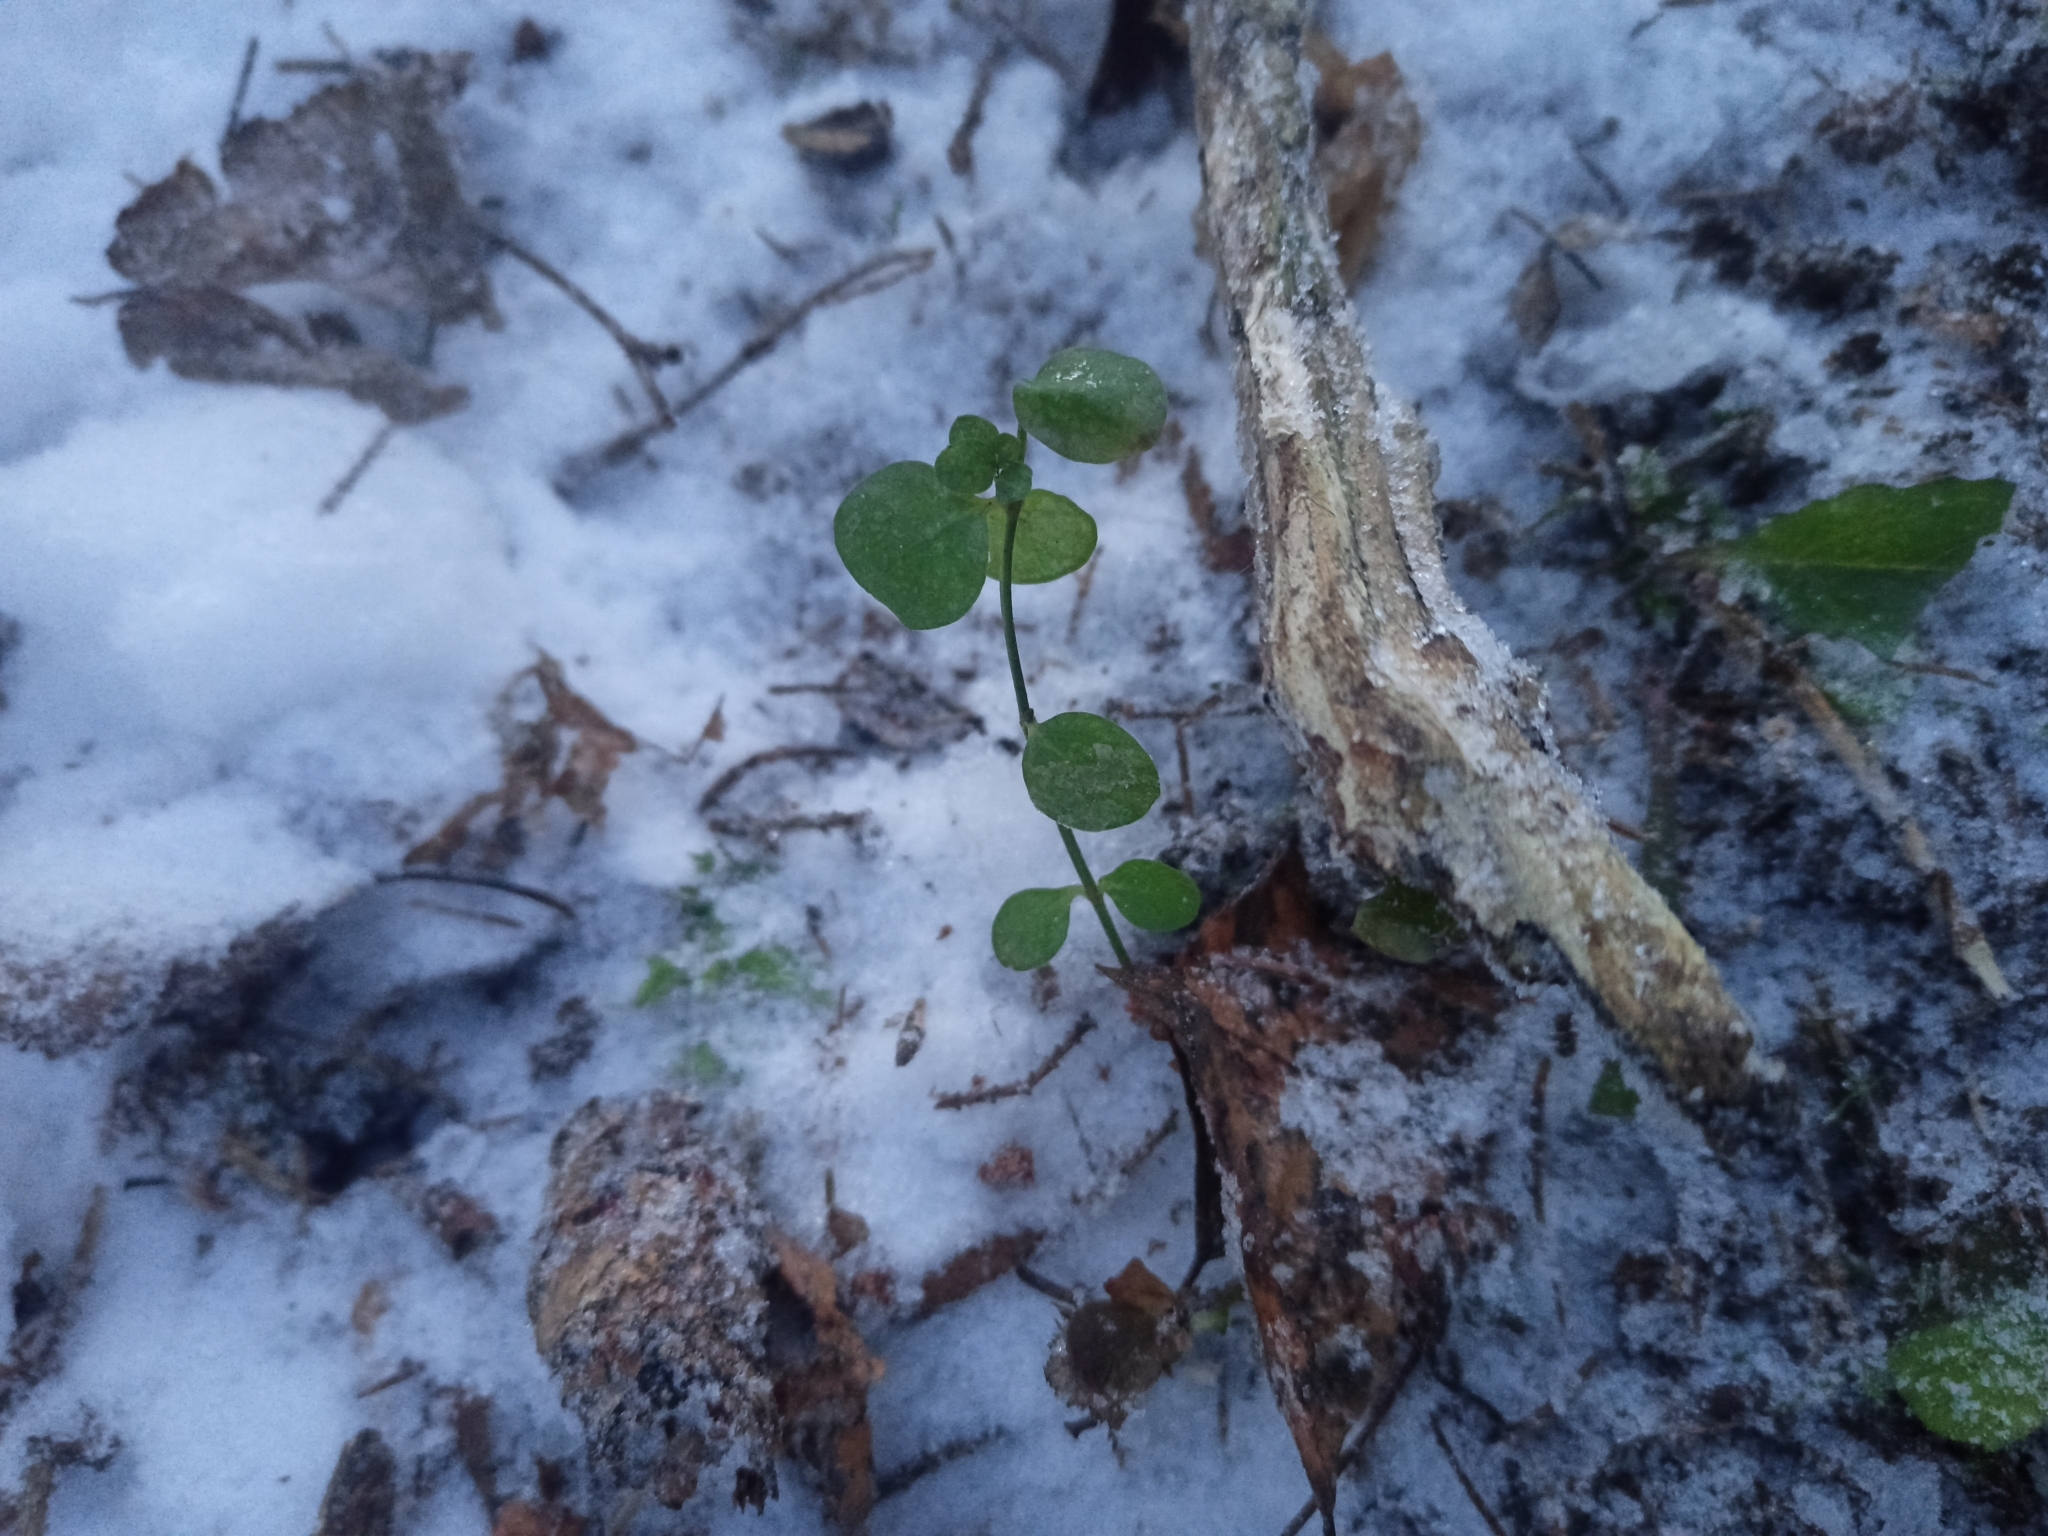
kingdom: Plantae
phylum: Tracheophyta
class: Magnoliopsida
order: Ericales
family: Primulaceae
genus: Lysimachia
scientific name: Lysimachia nummularia
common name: Moneywort
